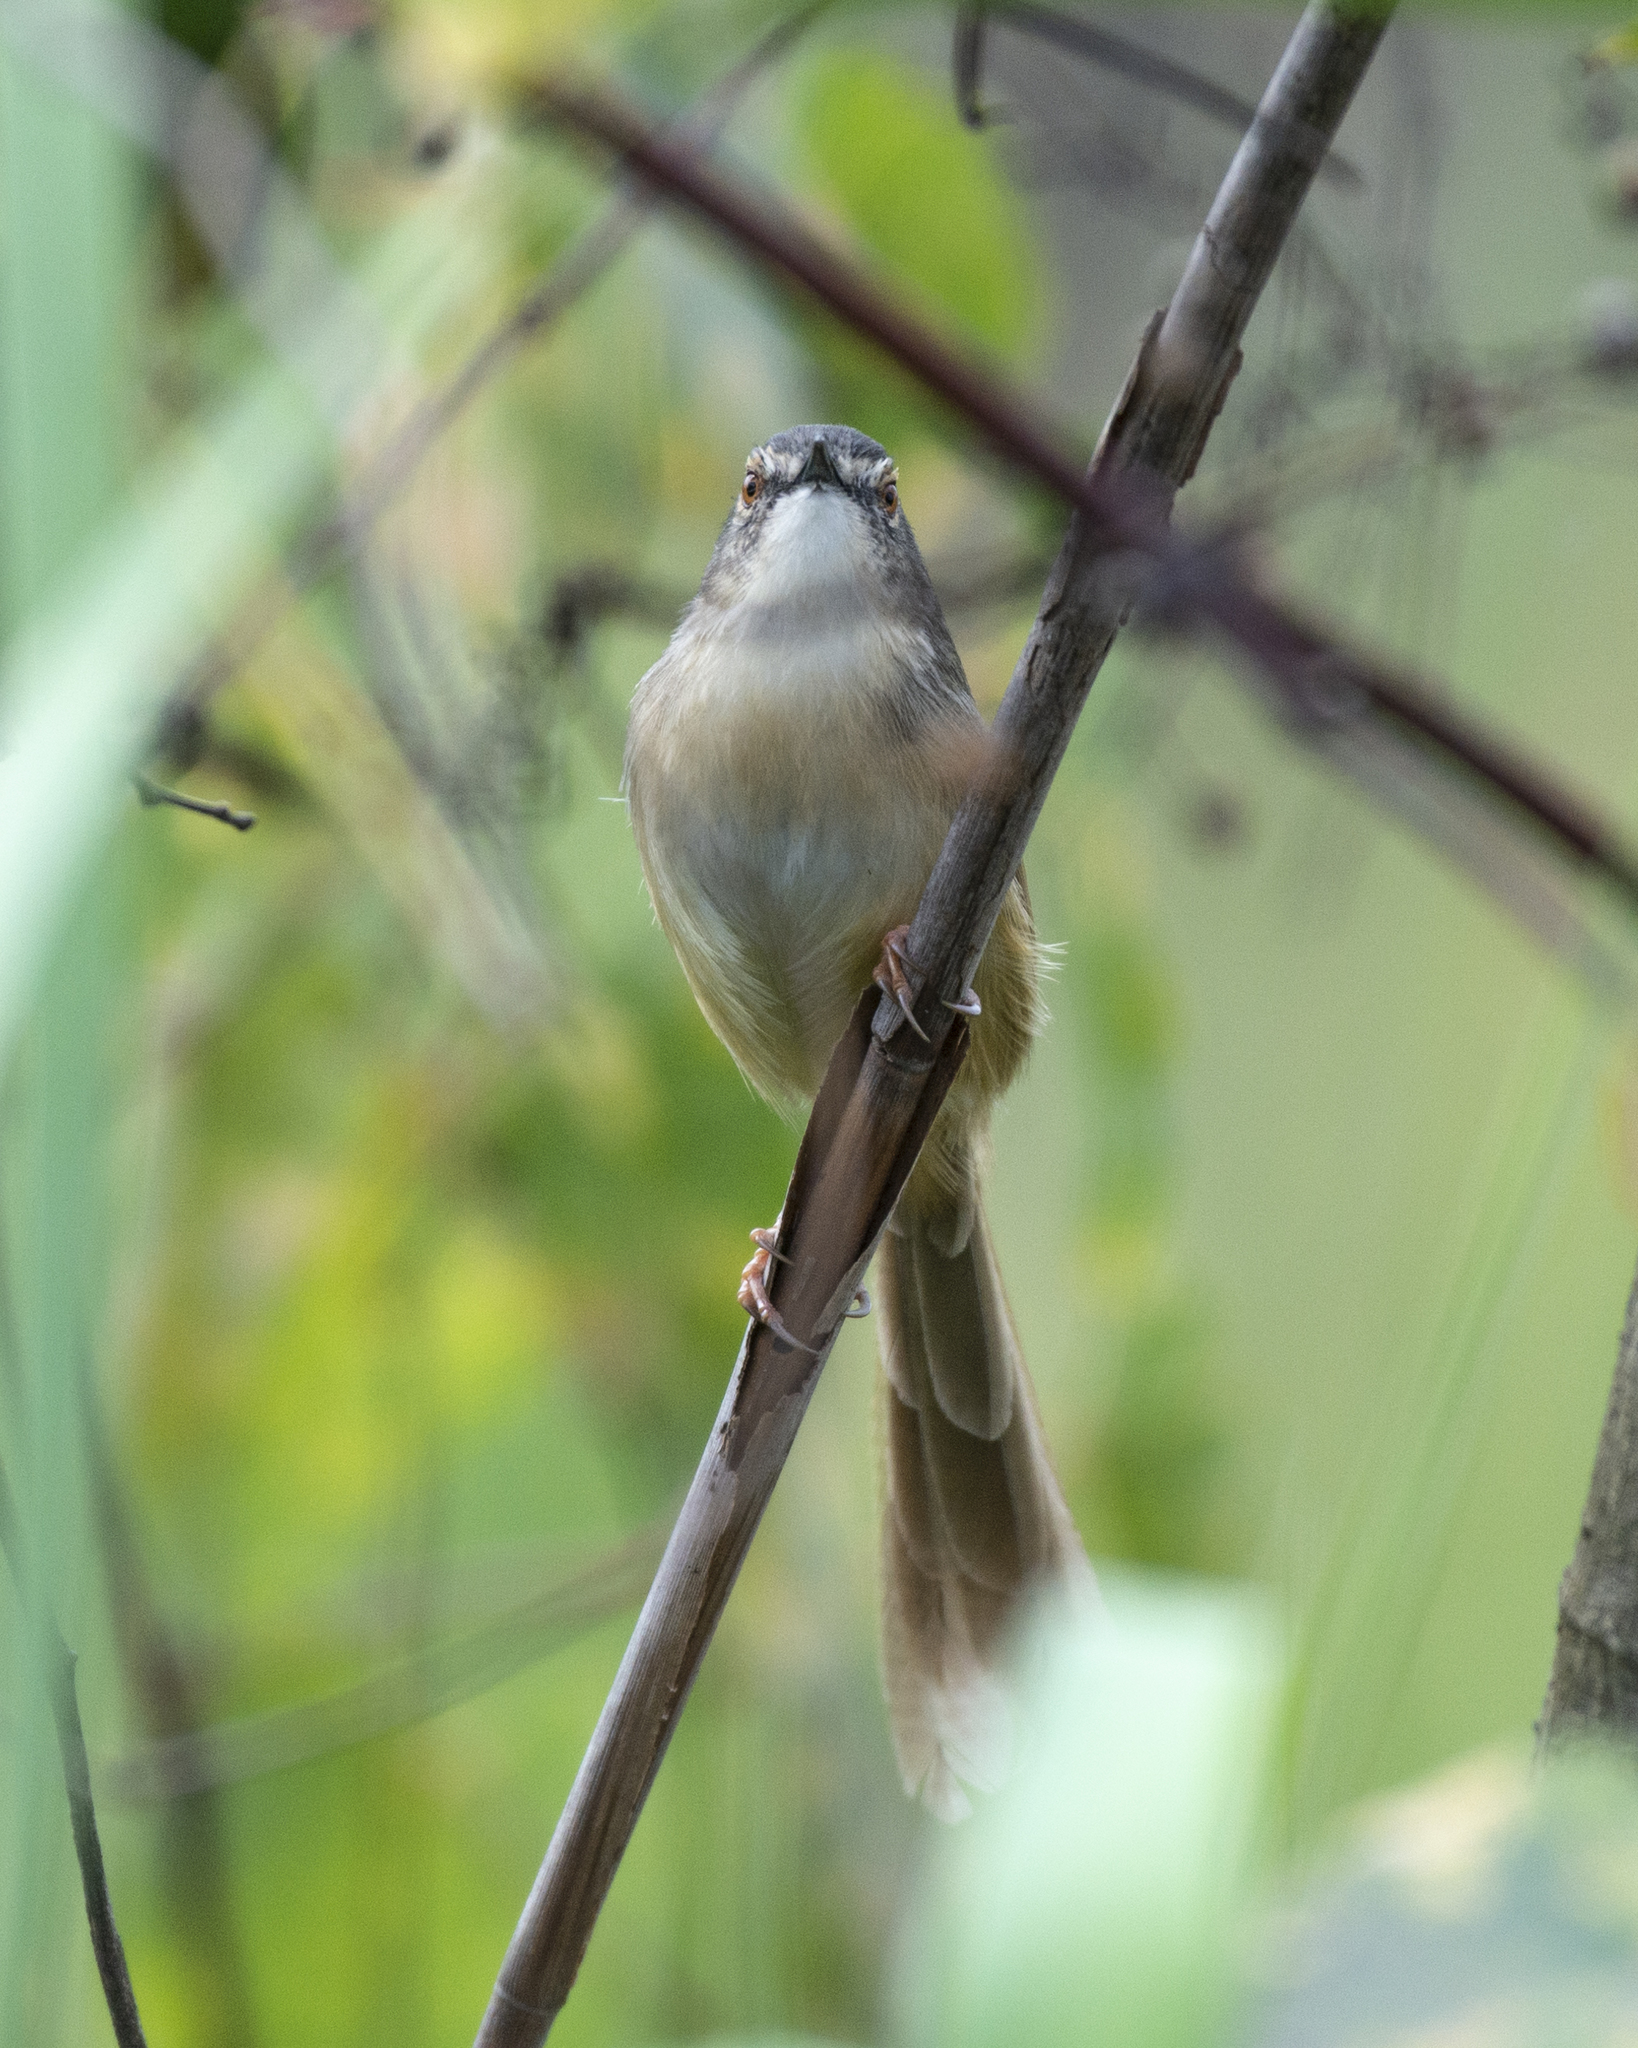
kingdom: Animalia
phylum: Chordata
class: Aves
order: Passeriformes
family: Cisticolidae
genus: Prinia
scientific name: Prinia flaviventris
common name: Yellow-bellied prinia
